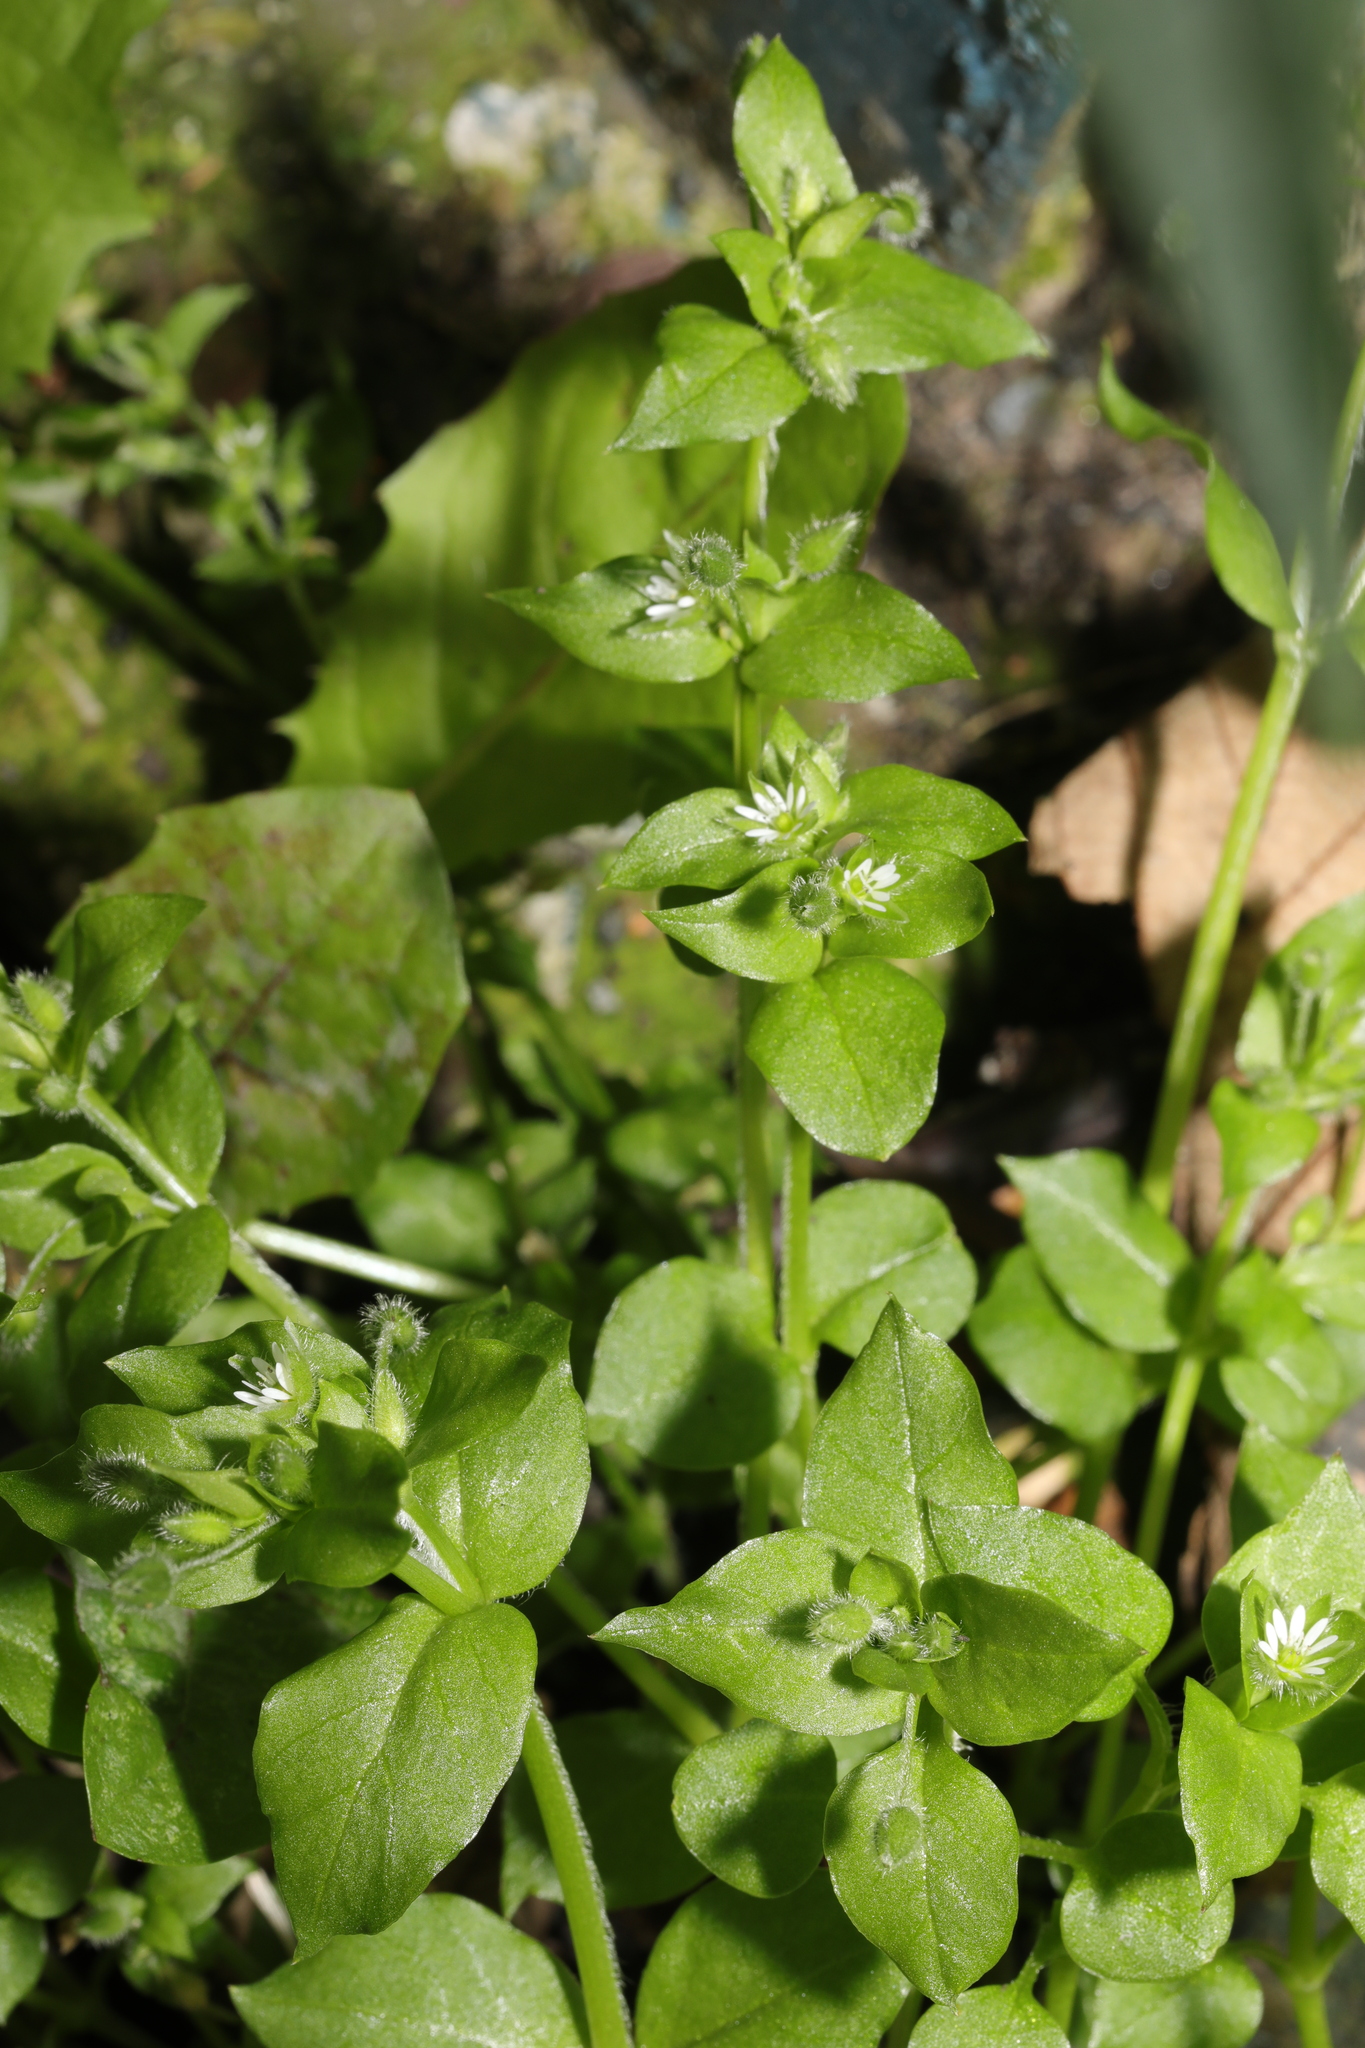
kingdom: Plantae
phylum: Tracheophyta
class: Magnoliopsida
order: Caryophyllales
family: Caryophyllaceae
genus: Stellaria
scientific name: Stellaria media
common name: Common chickweed
